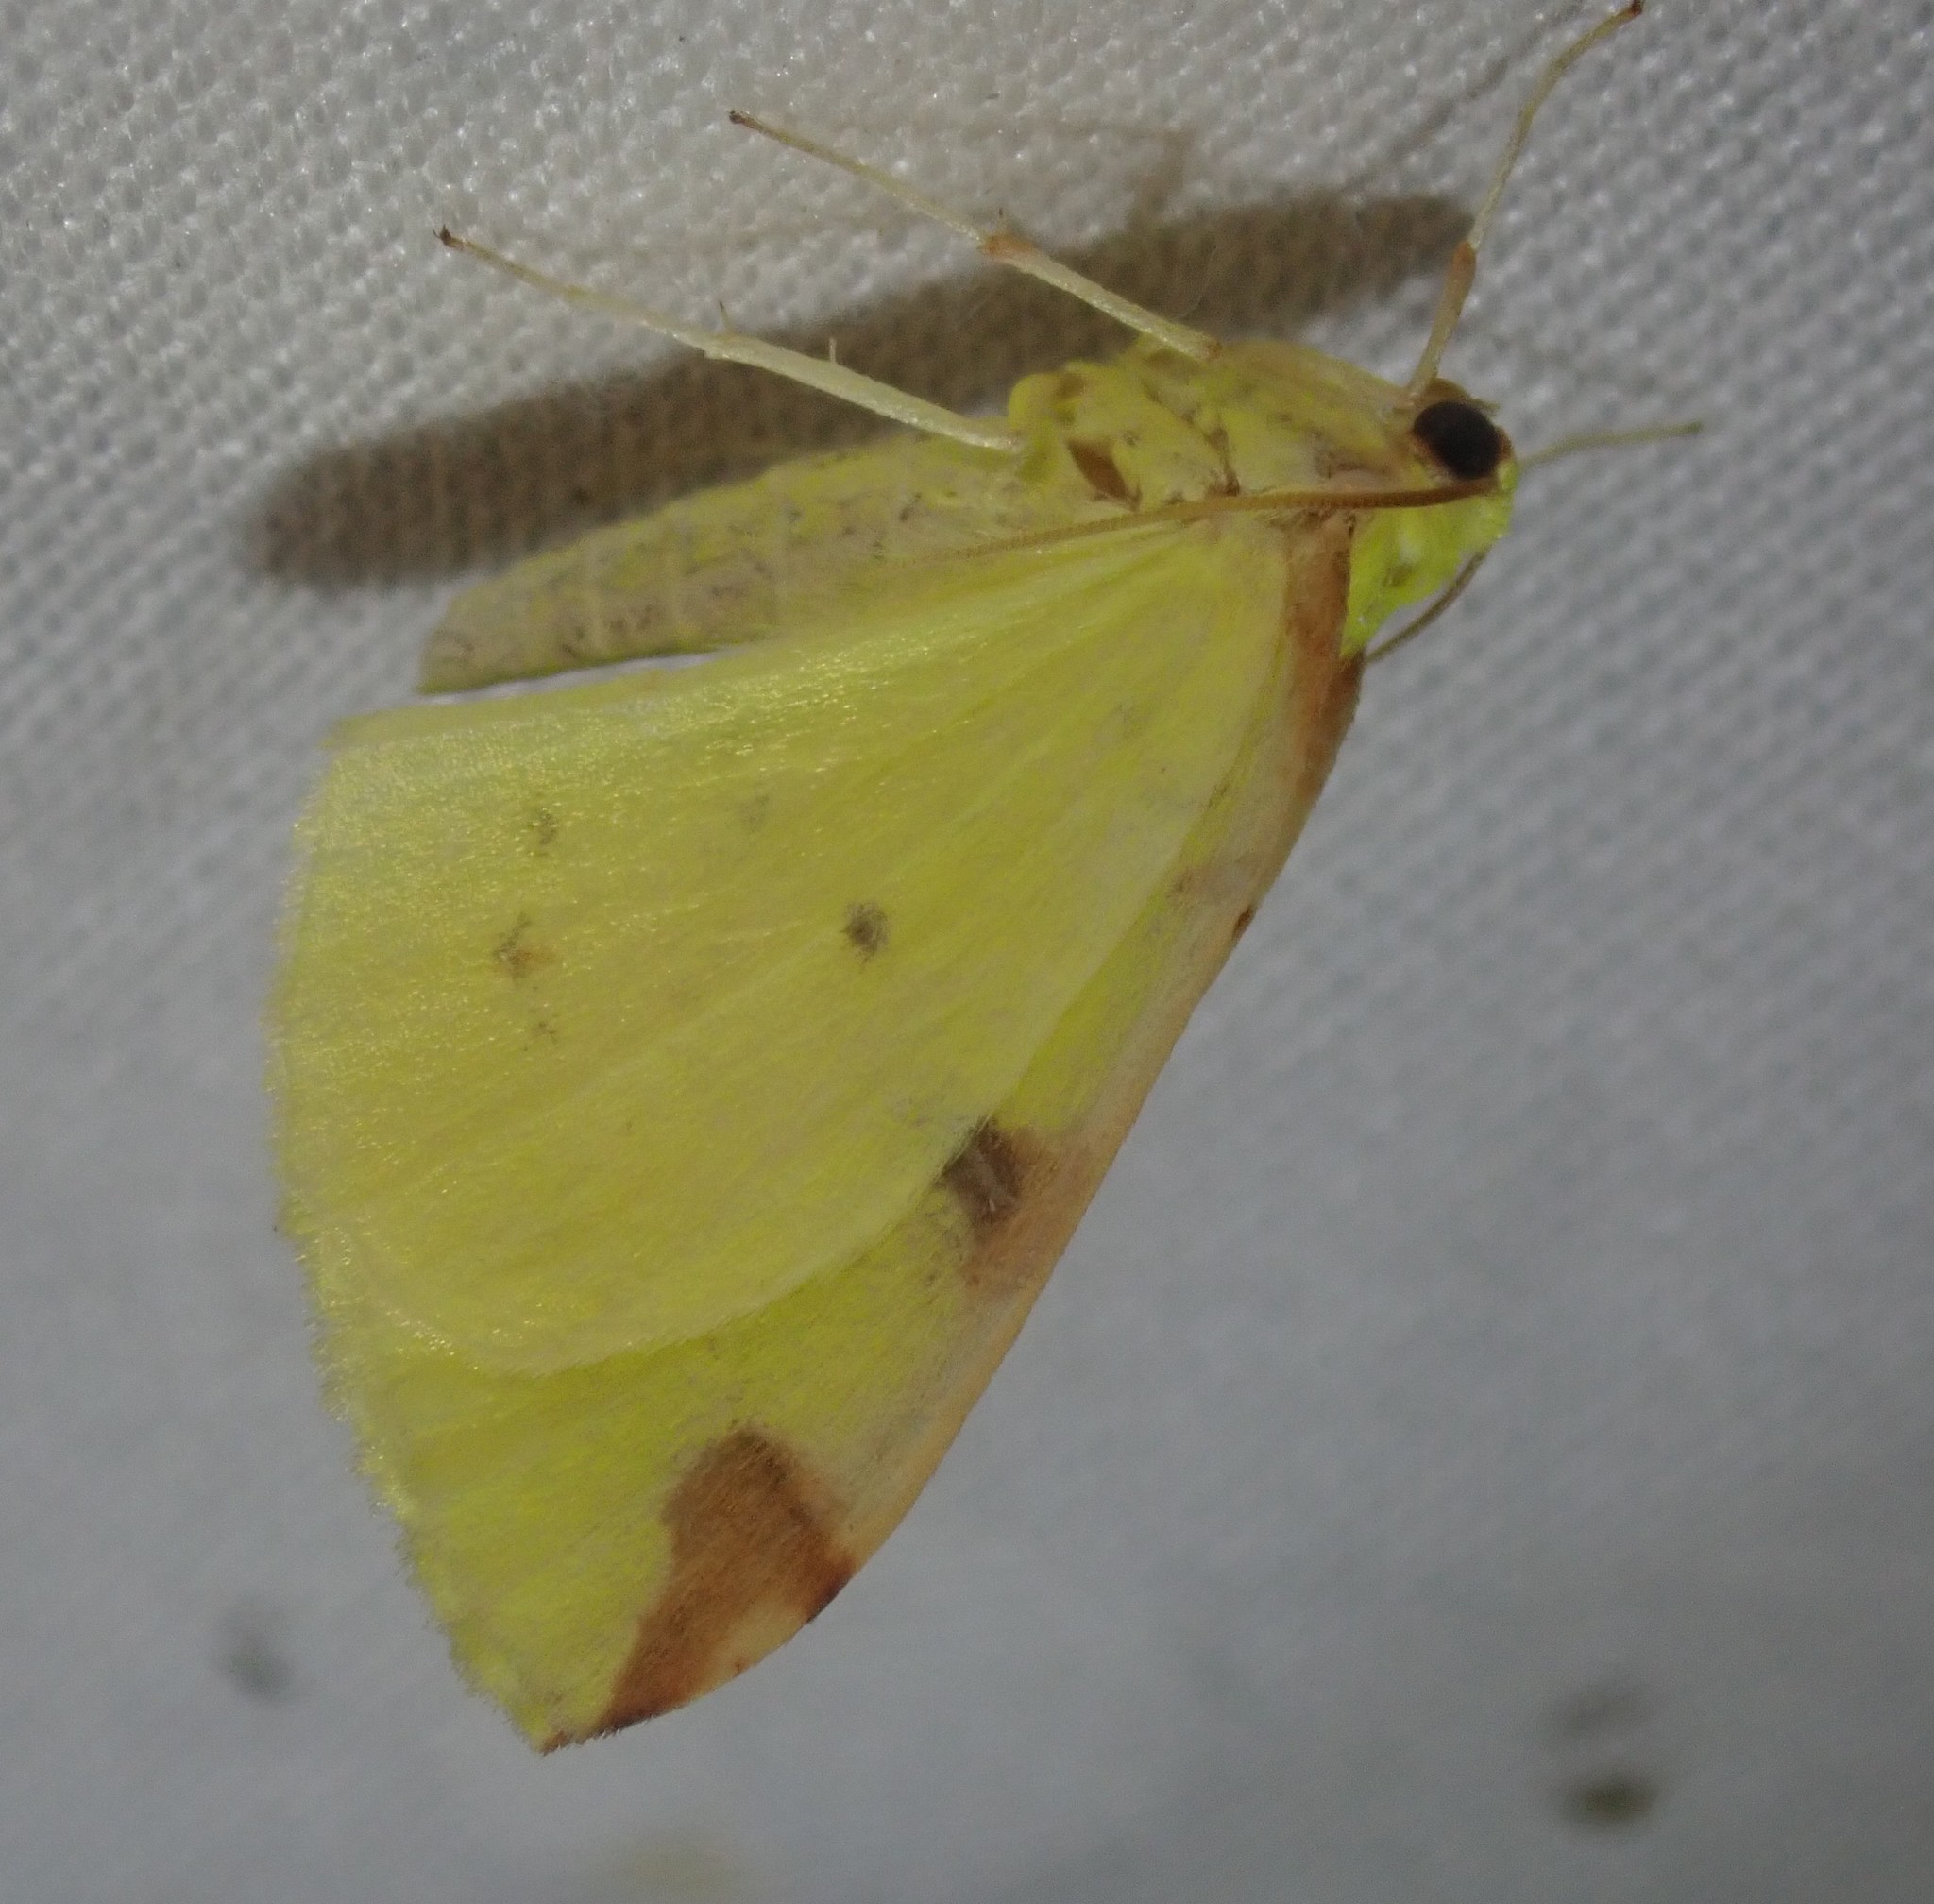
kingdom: Animalia
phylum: Arthropoda
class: Insecta
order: Lepidoptera
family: Geometridae
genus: Opisthograptis
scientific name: Opisthograptis luteolata
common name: Brimstone moth
